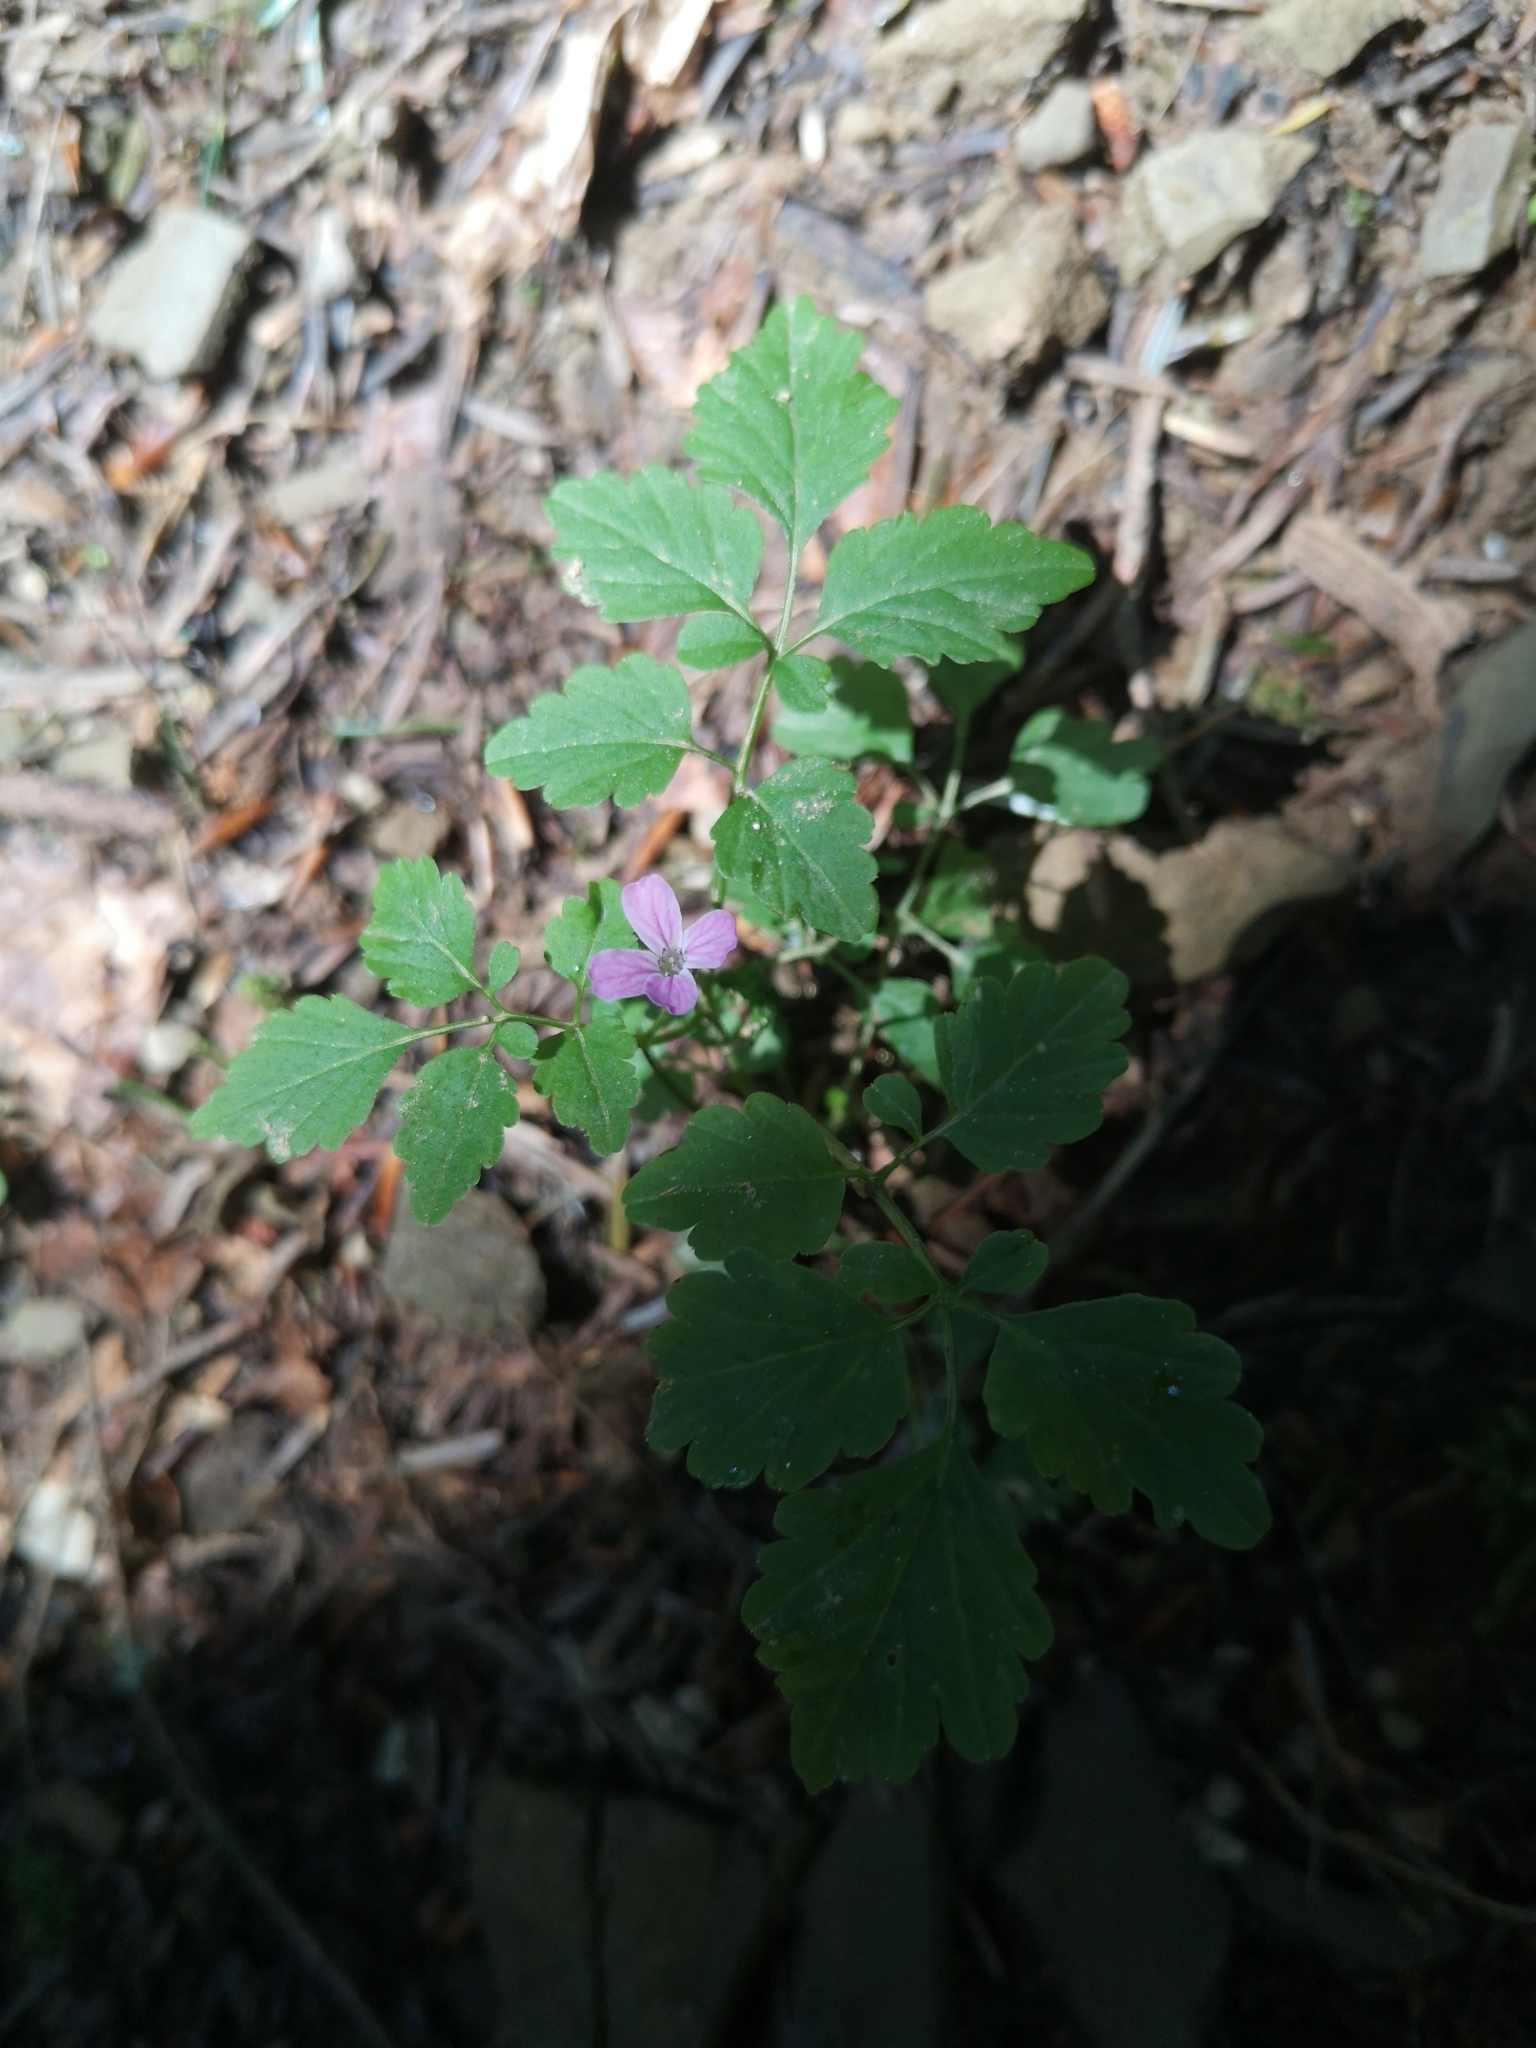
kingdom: Plantae
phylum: Tracheophyta
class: Magnoliopsida
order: Brassicales
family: Brassicaceae
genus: Cardamine
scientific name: Cardamine chelidonia
